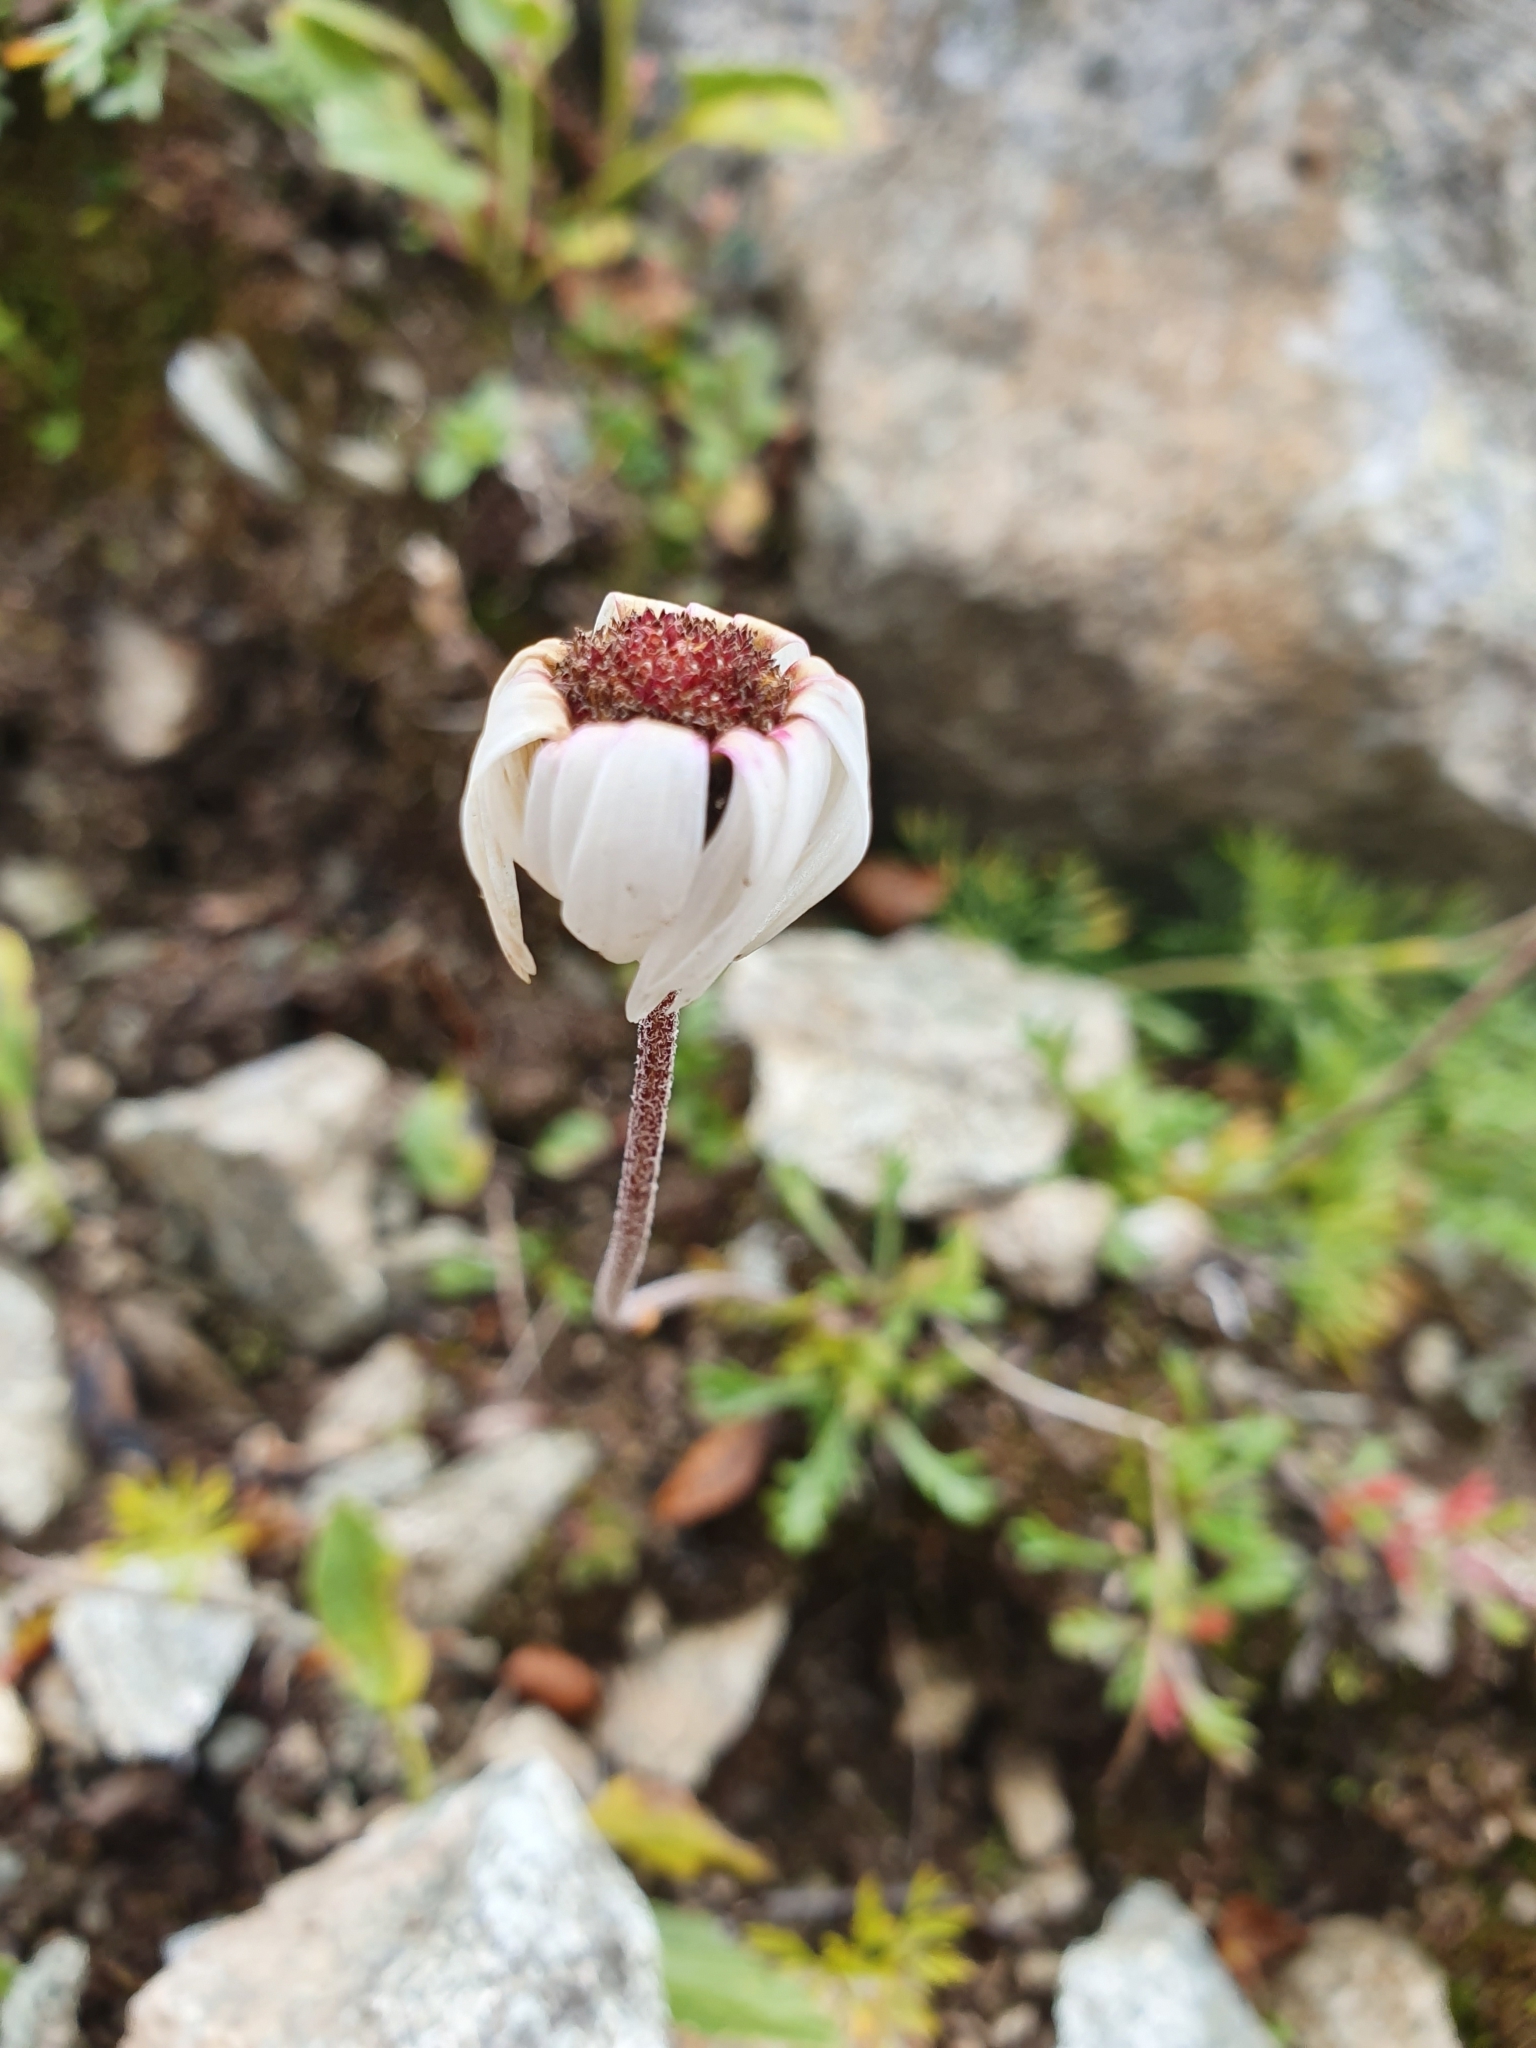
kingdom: Plantae
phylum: Tracheophyta
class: Magnoliopsida
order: Asterales
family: Asteraceae
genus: Leucanthemopsis
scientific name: Leucanthemopsis alpina
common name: Alpine moon daisy
